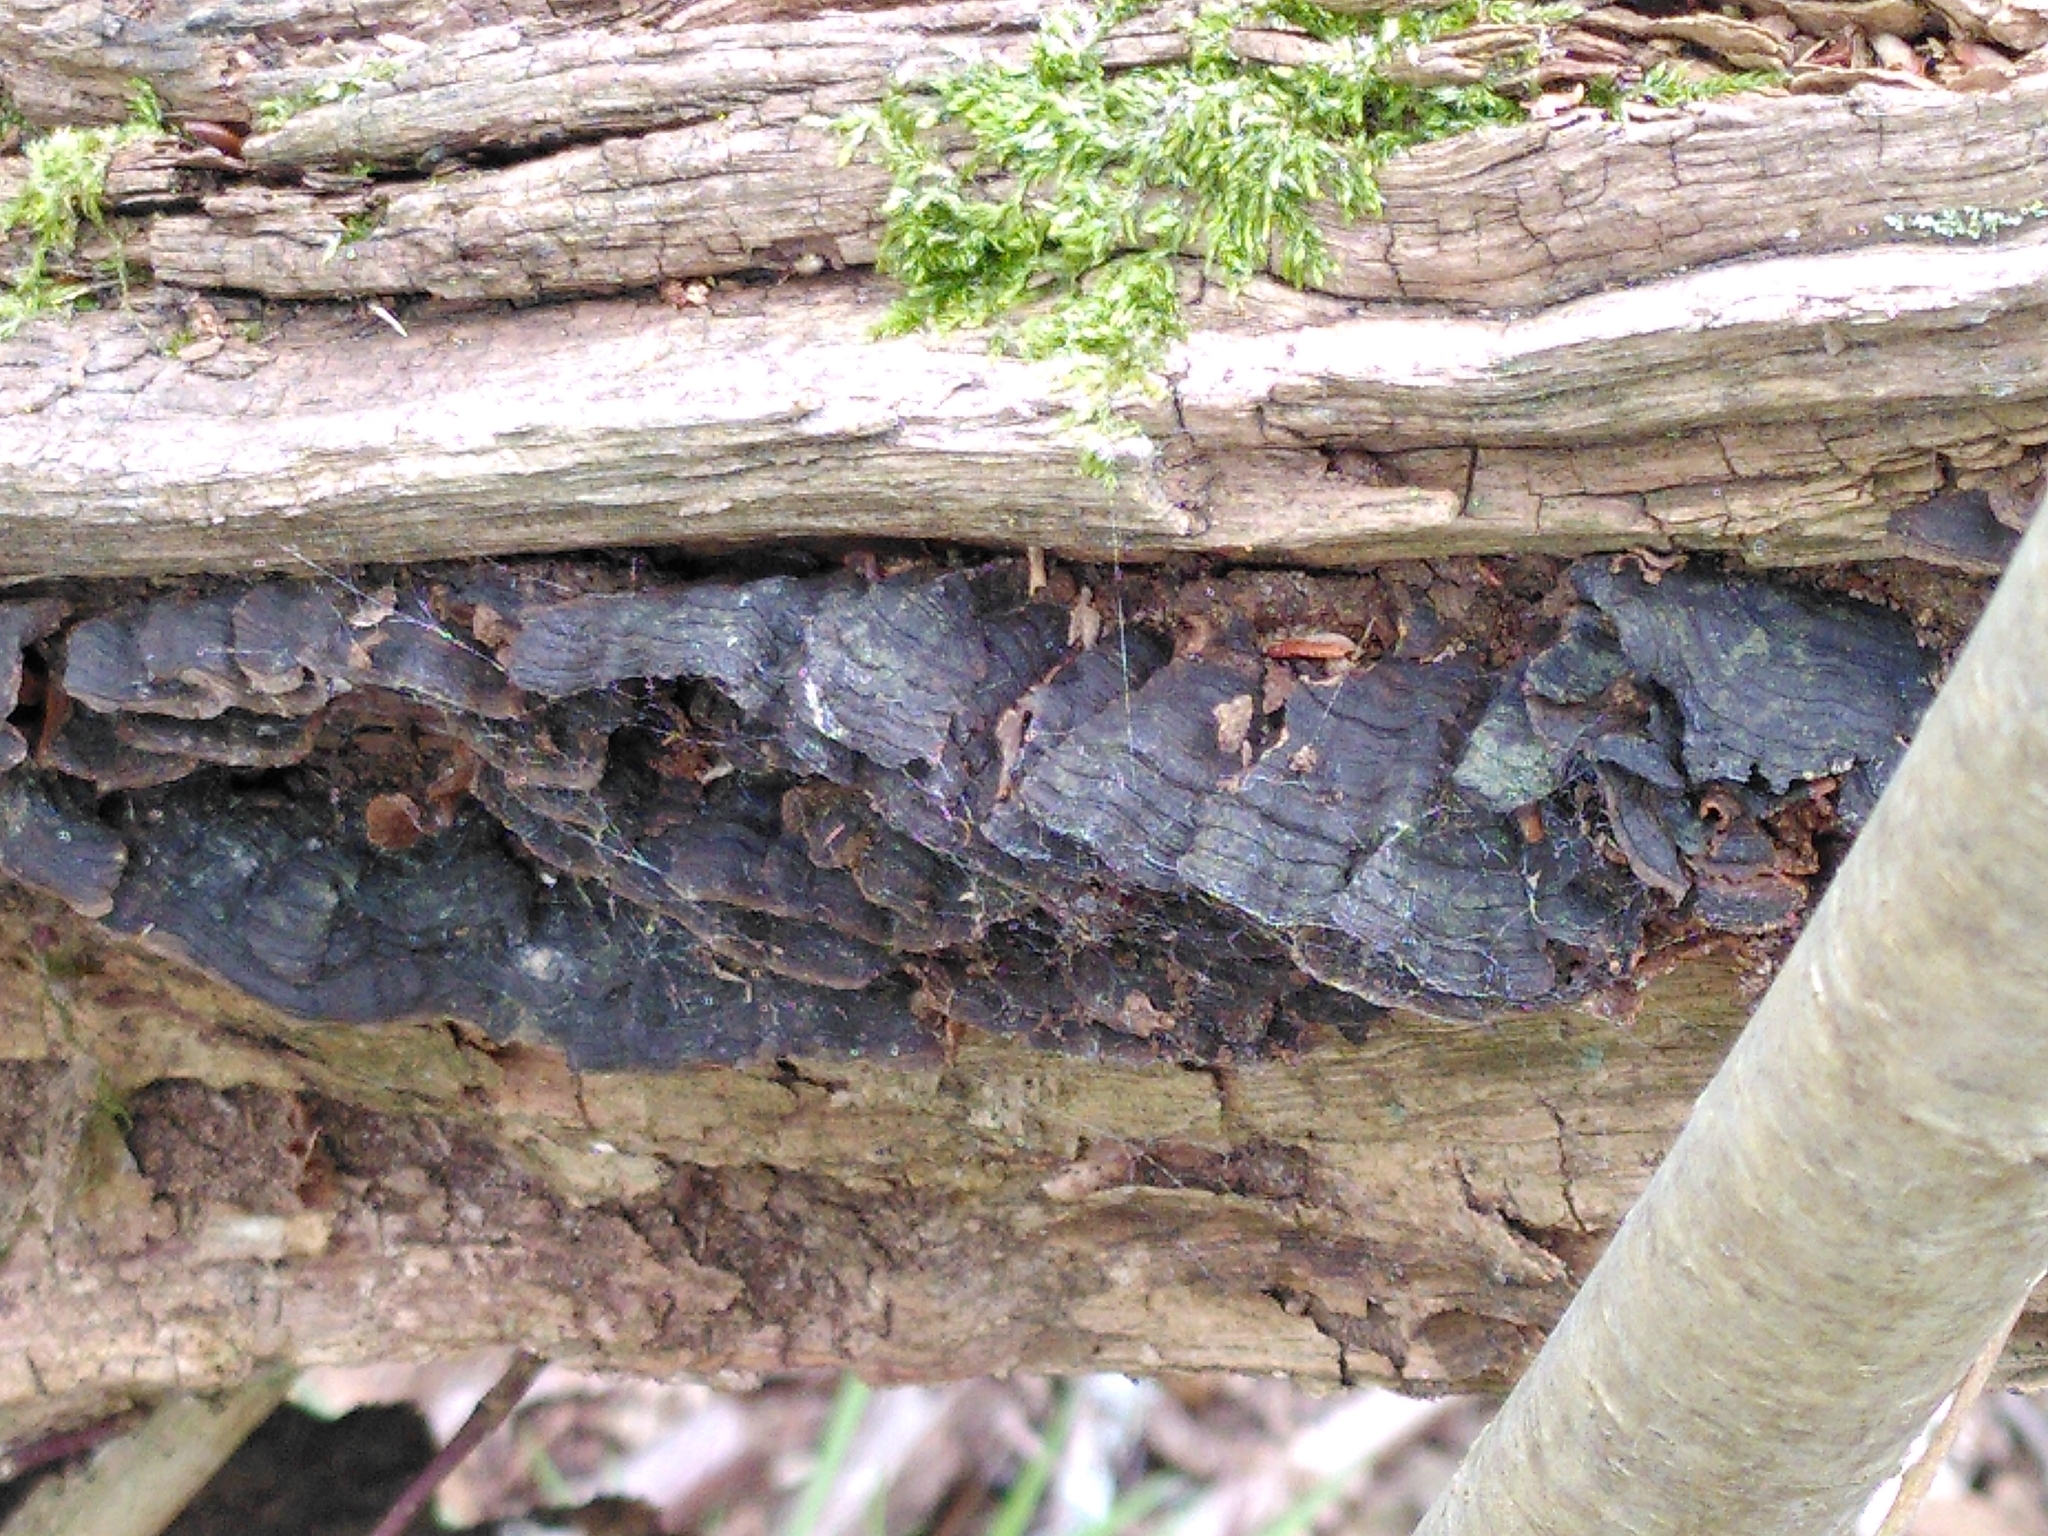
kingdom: Fungi
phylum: Basidiomycota
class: Agaricomycetes
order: Hymenochaetales
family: Hymenochaetaceae
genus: Hymenochaete
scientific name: Hymenochaete rubiginosa
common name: Oak curtain crust
